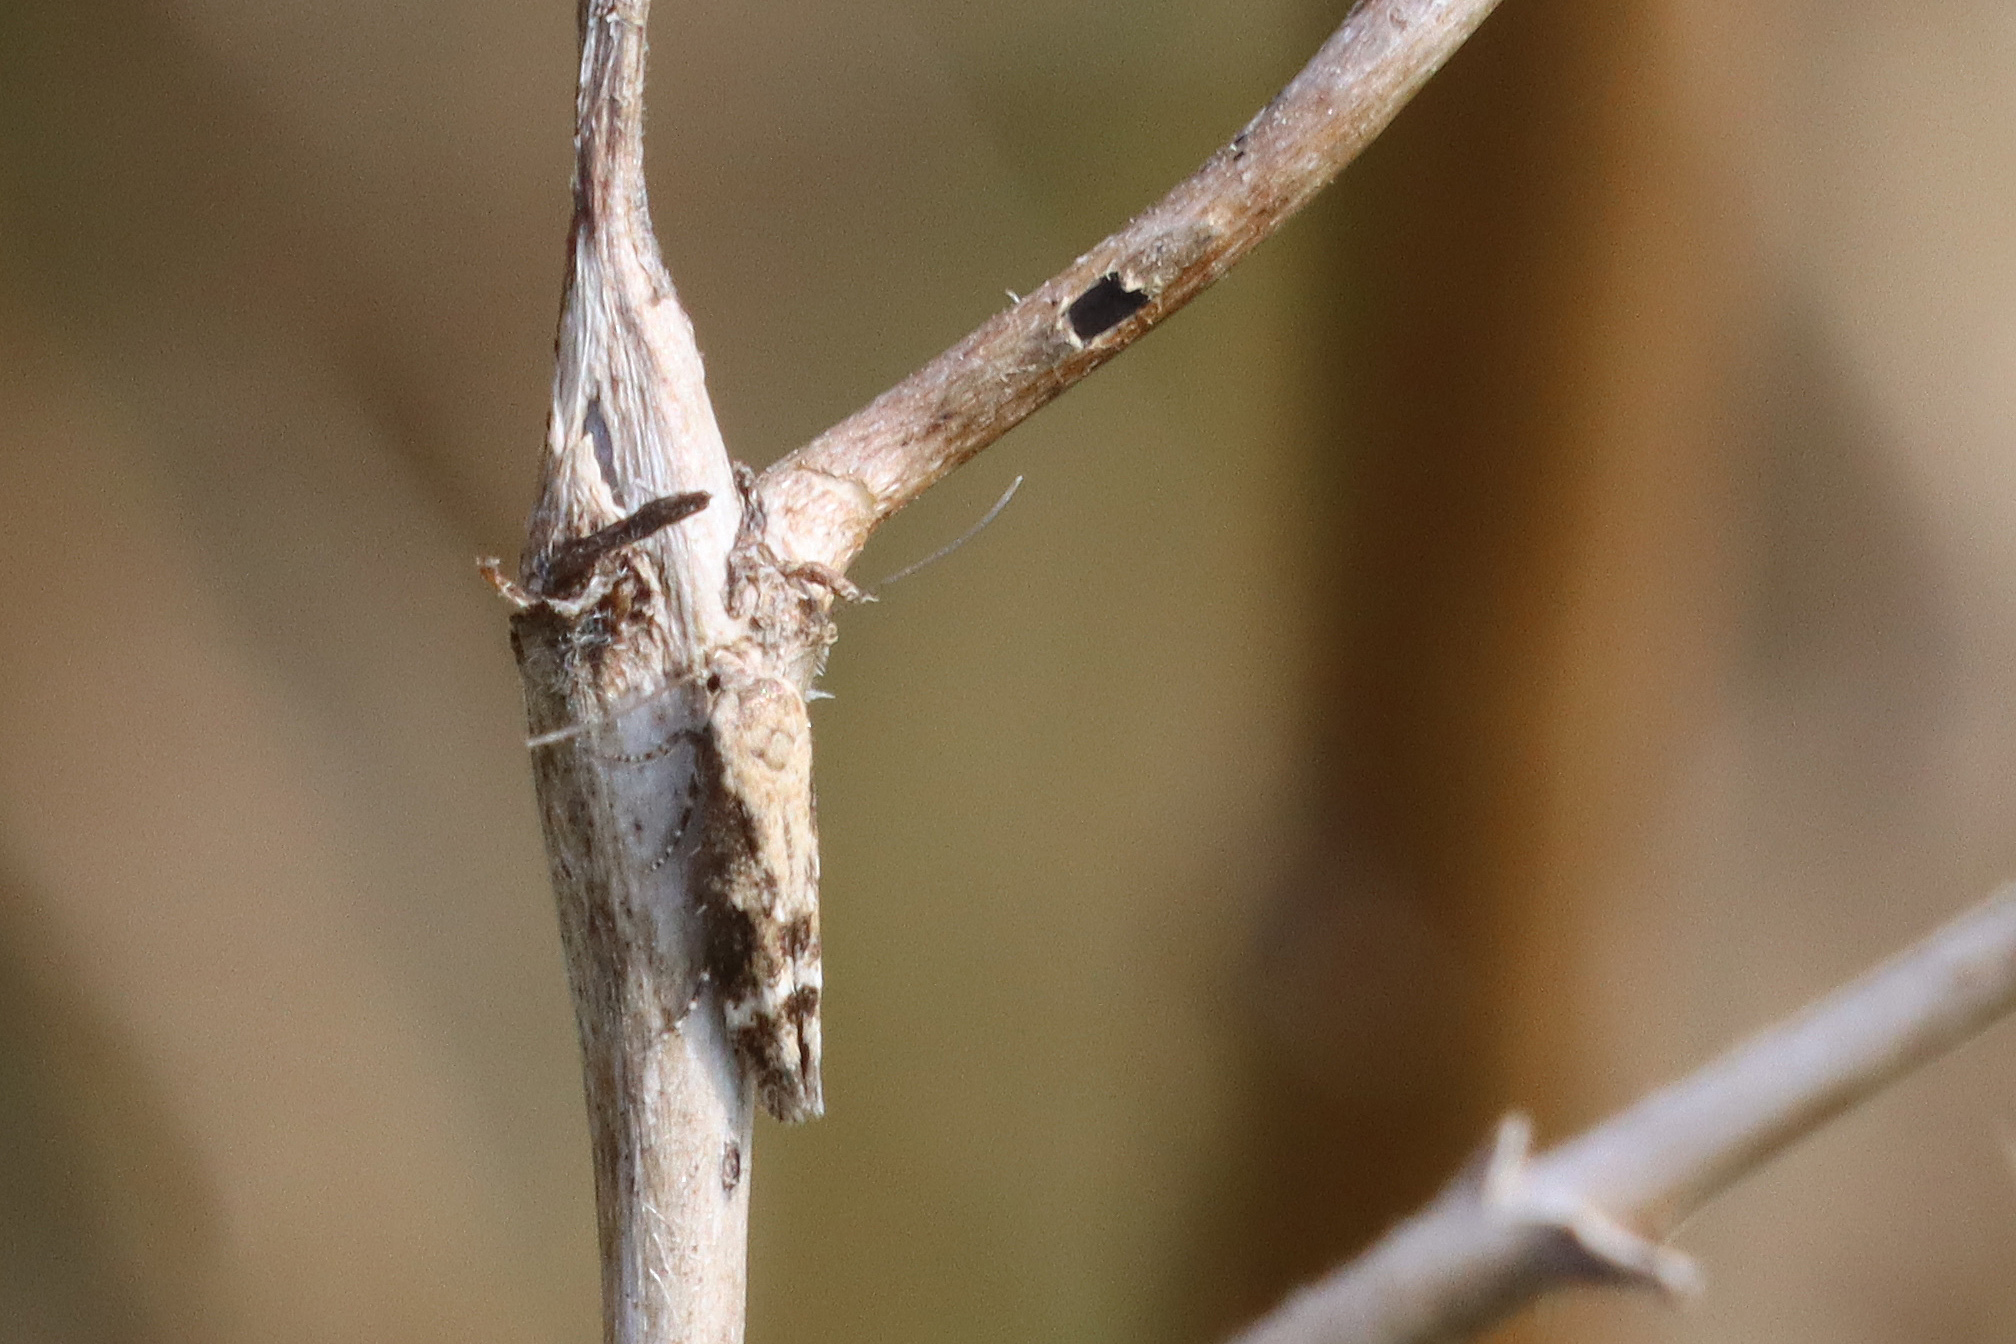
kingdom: Animalia
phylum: Arthropoda
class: Insecta
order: Lepidoptera
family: Momphidae
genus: Mompha
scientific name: Mompha subbistrigella
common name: Garden cosmet
